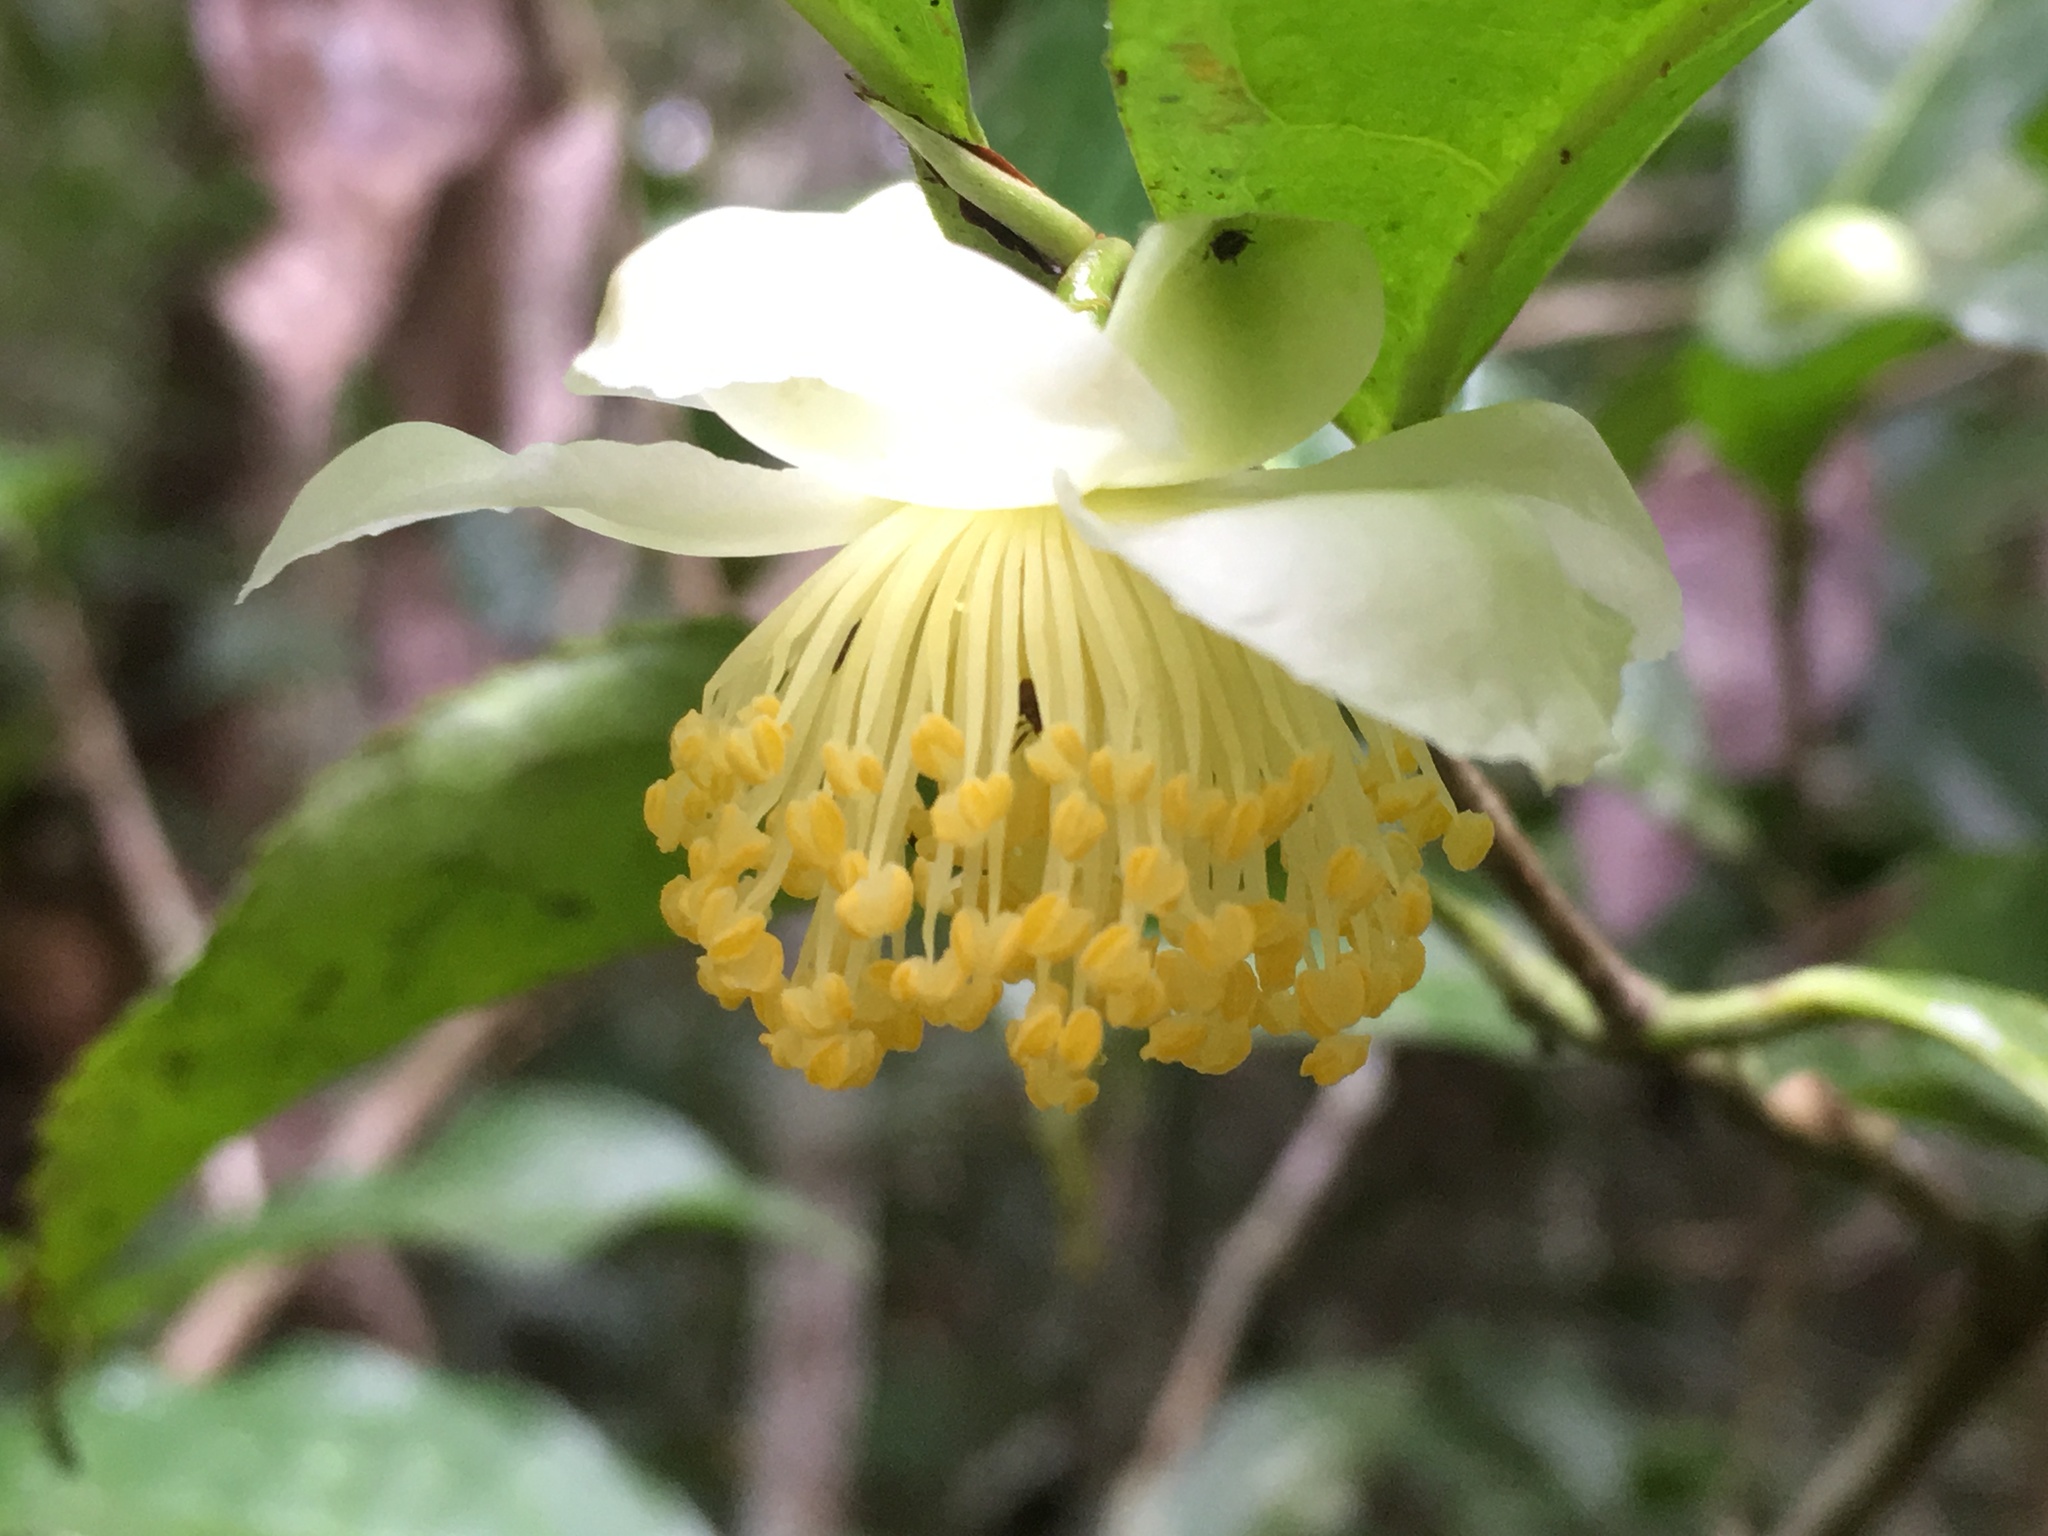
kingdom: Plantae
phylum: Tracheophyta
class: Magnoliopsida
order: Ericales
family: Theaceae
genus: Camellia
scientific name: Camellia sinensis
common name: Tea
